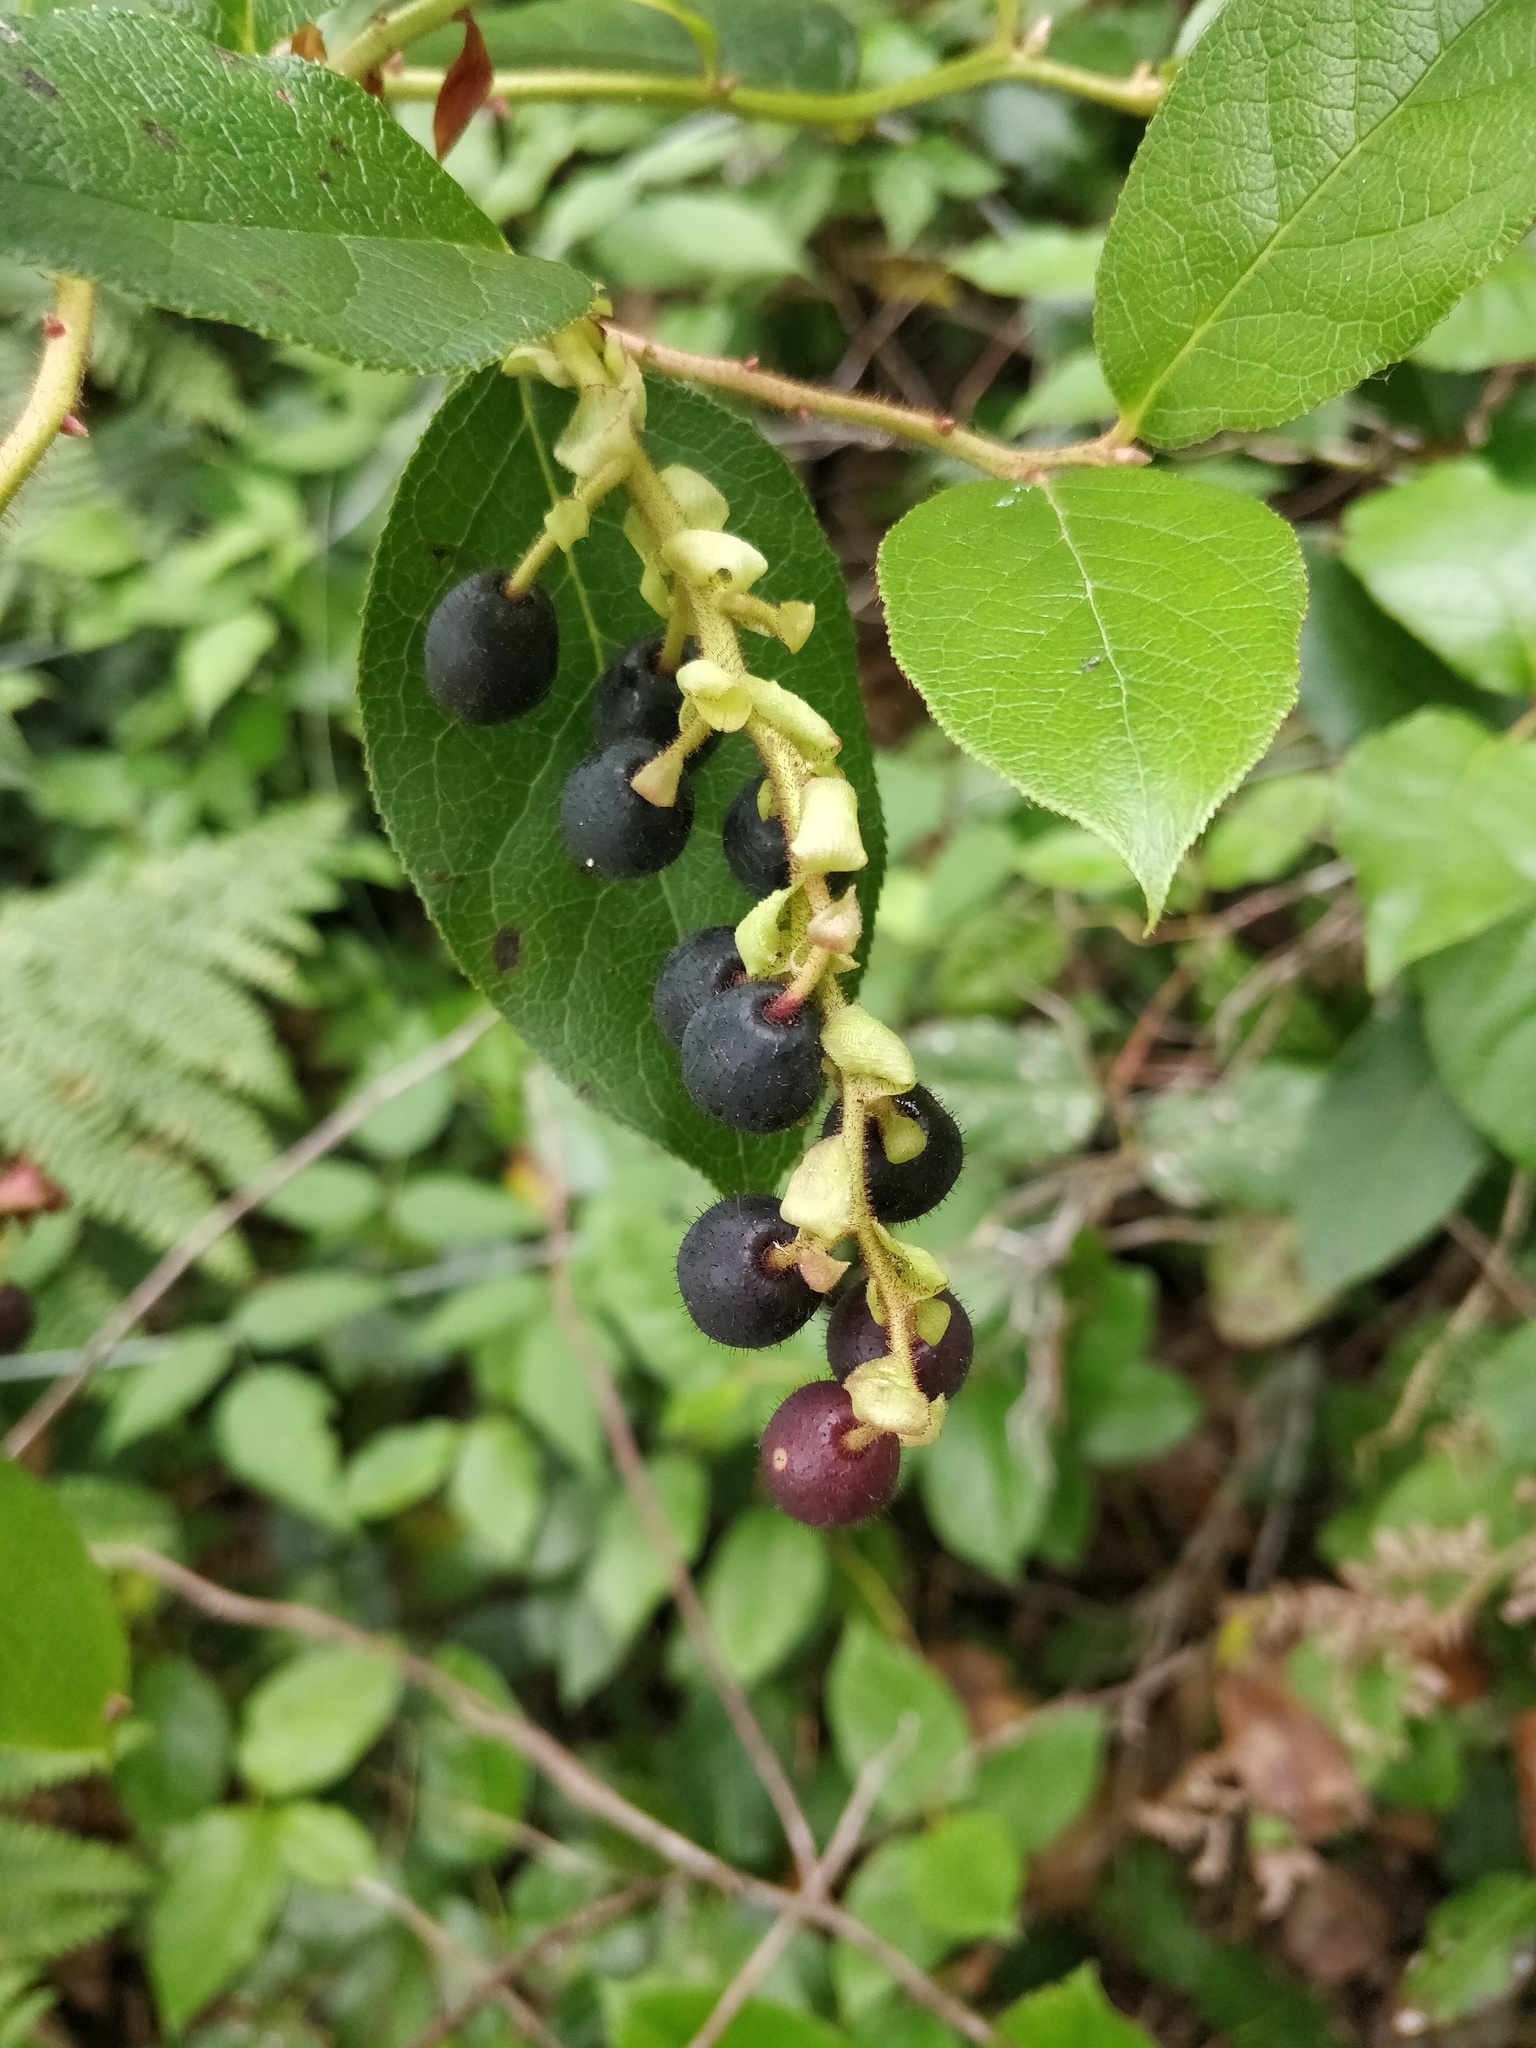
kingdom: Plantae
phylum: Tracheophyta
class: Magnoliopsida
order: Ericales
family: Ericaceae
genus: Gaultheria
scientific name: Gaultheria shallon
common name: Shallon
